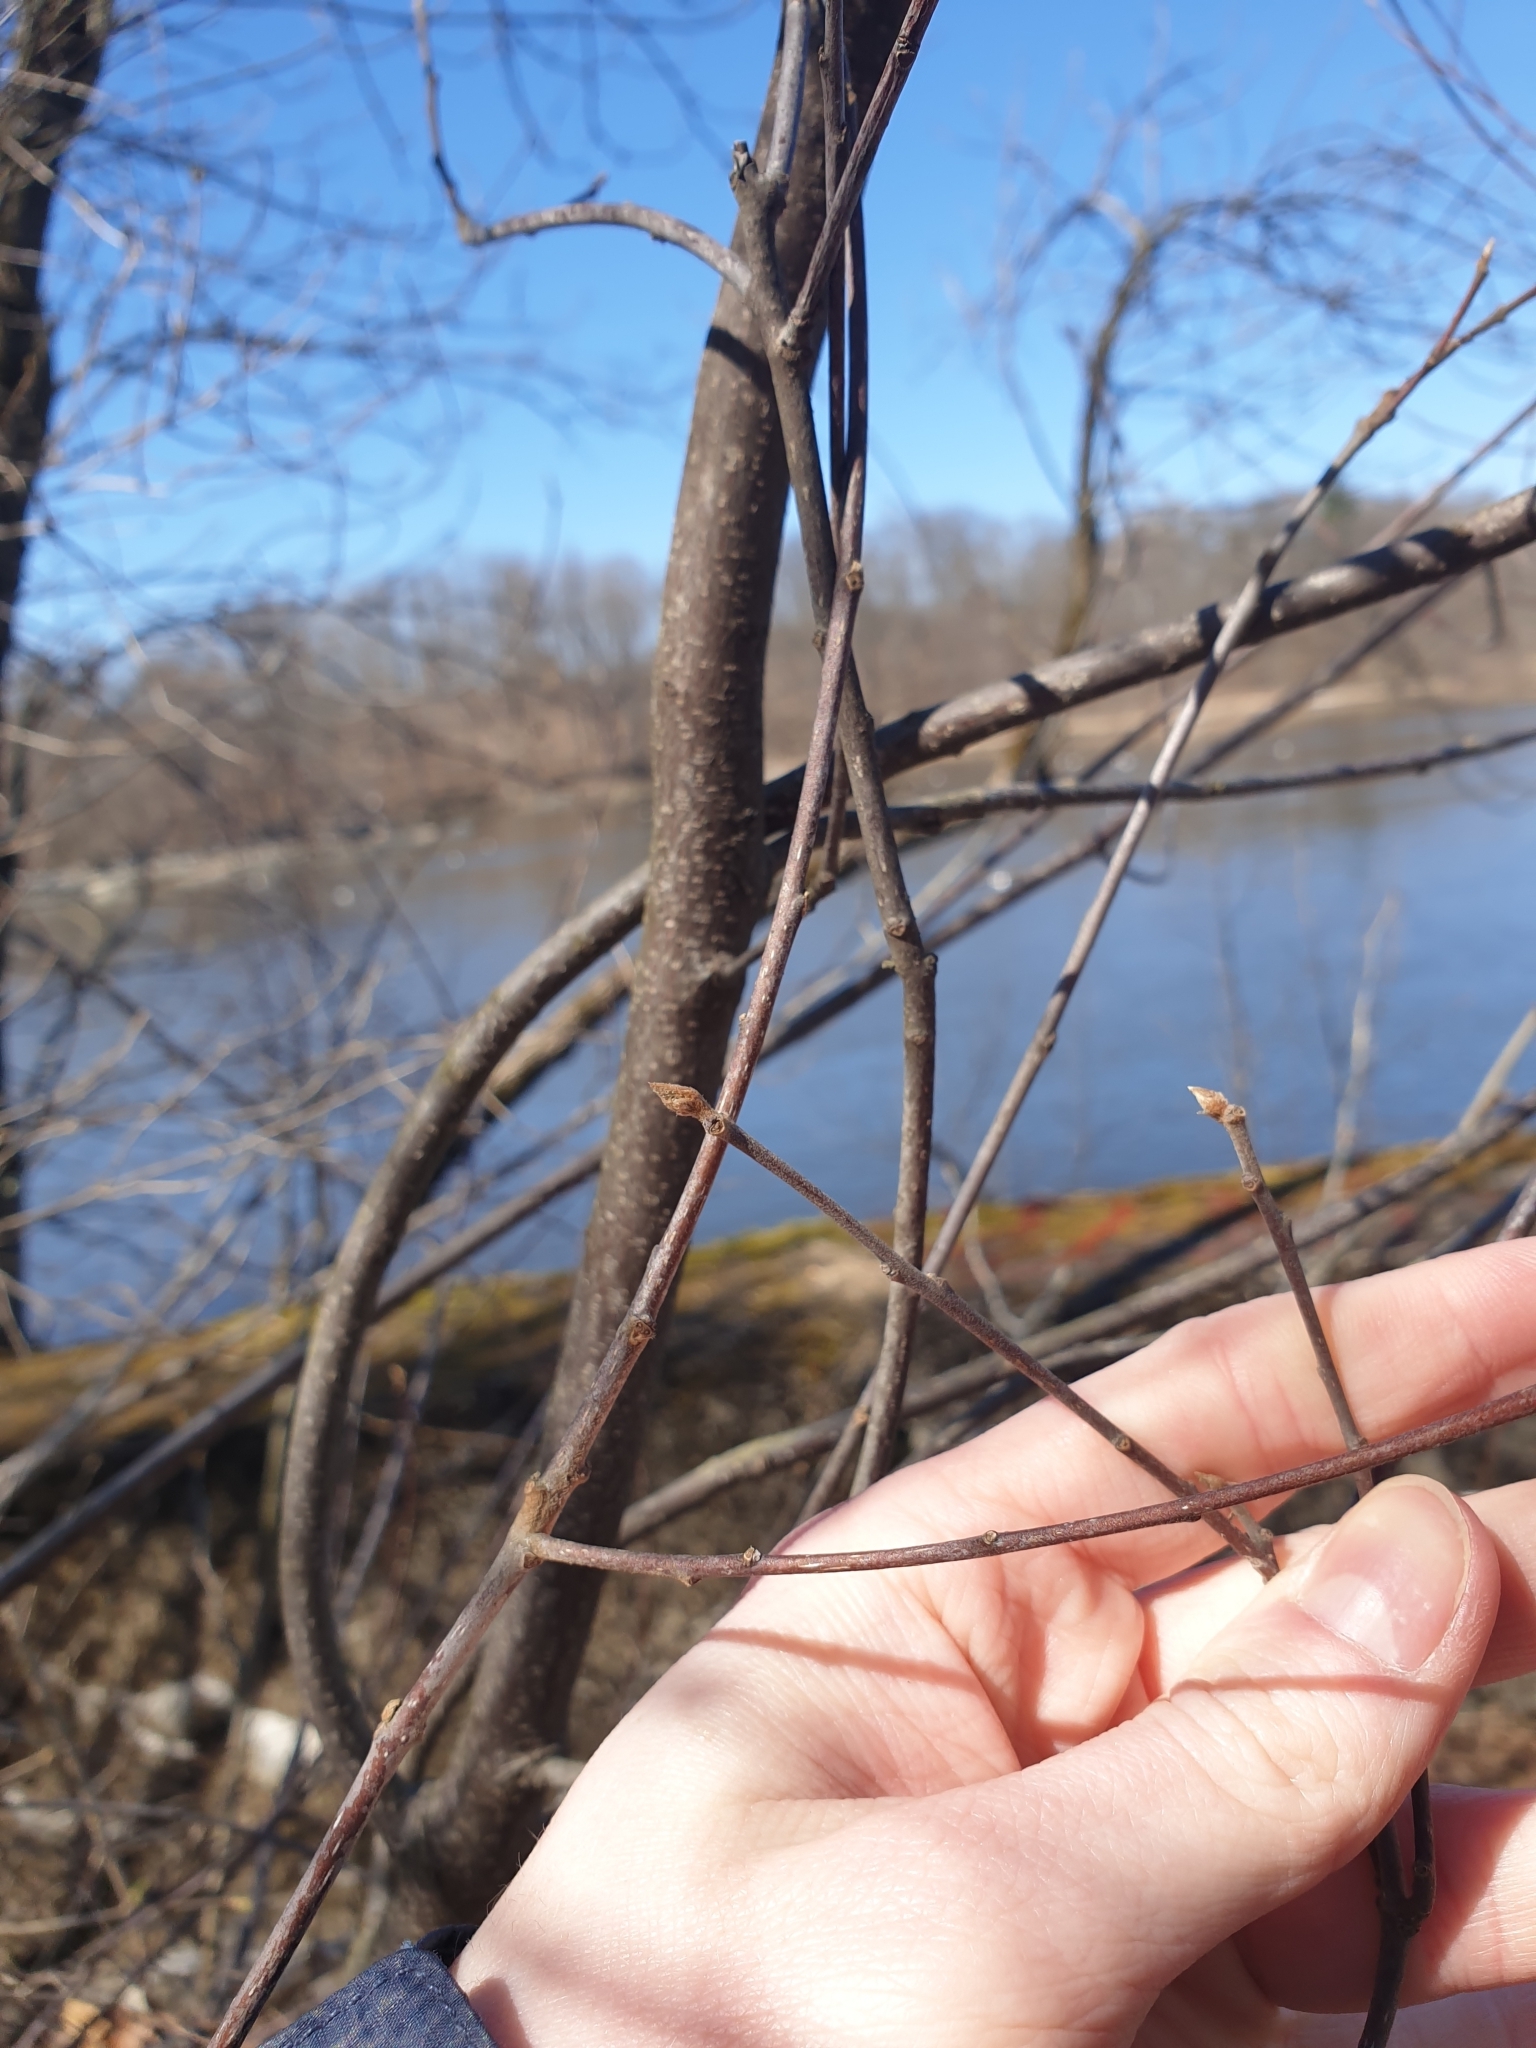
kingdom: Plantae
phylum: Tracheophyta
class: Magnoliopsida
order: Rosales
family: Rhamnaceae
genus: Frangula
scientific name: Frangula alnus
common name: Alder buckthorn
